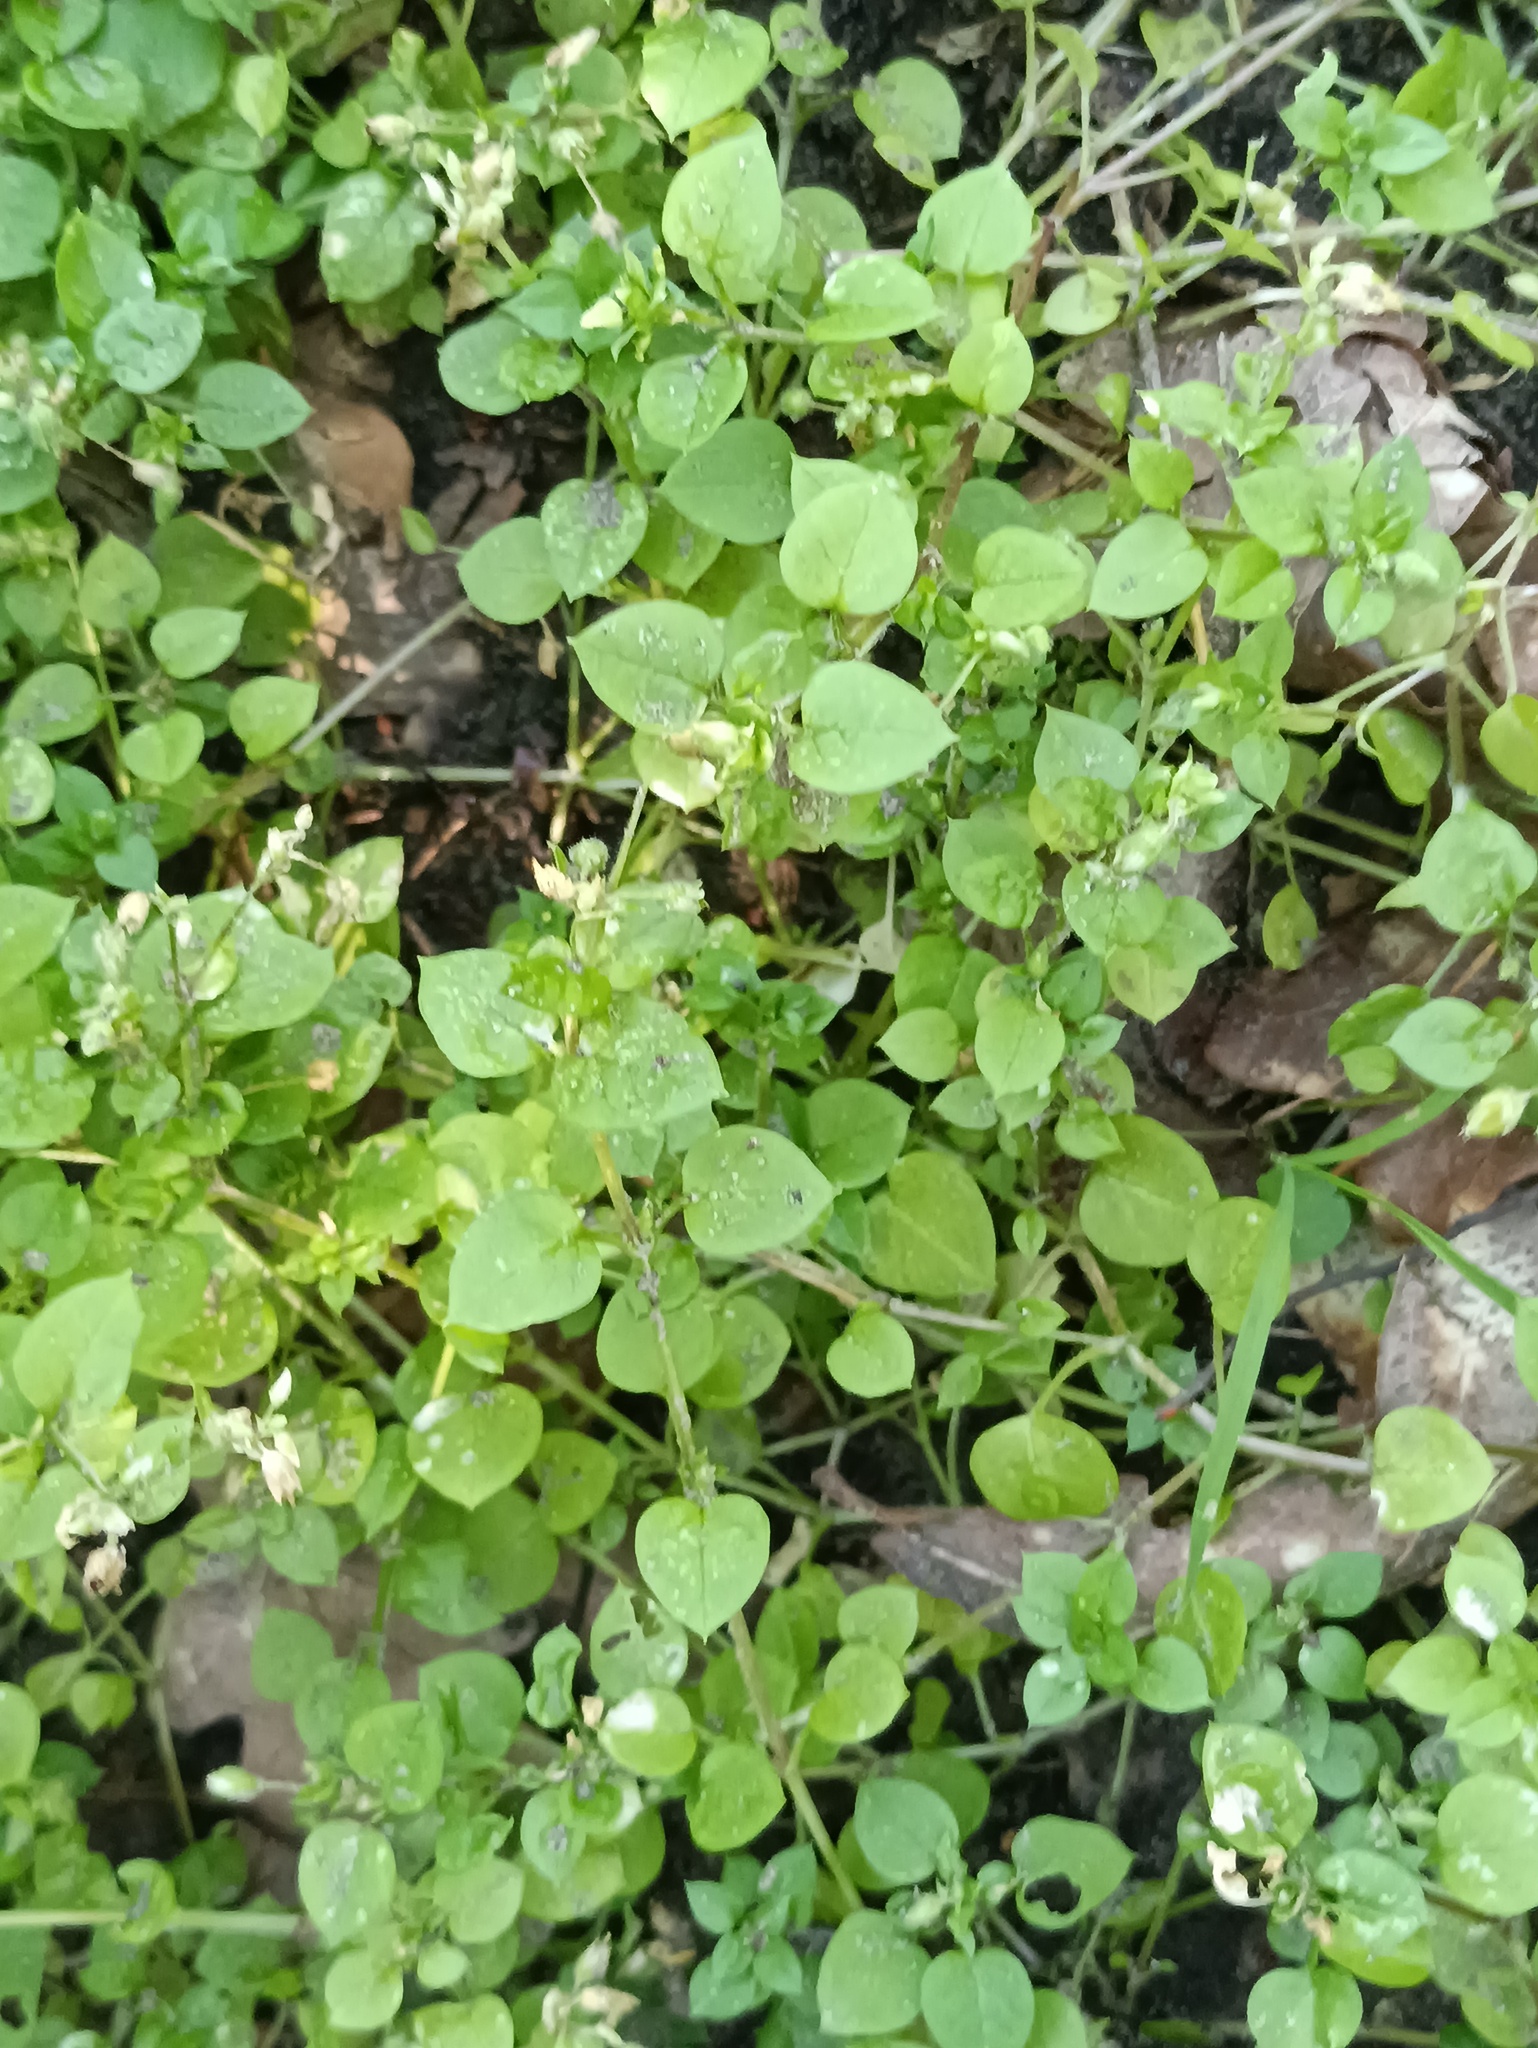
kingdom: Plantae
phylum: Tracheophyta
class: Magnoliopsida
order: Caryophyllales
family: Caryophyllaceae
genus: Stellaria
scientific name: Stellaria media
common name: Common chickweed
